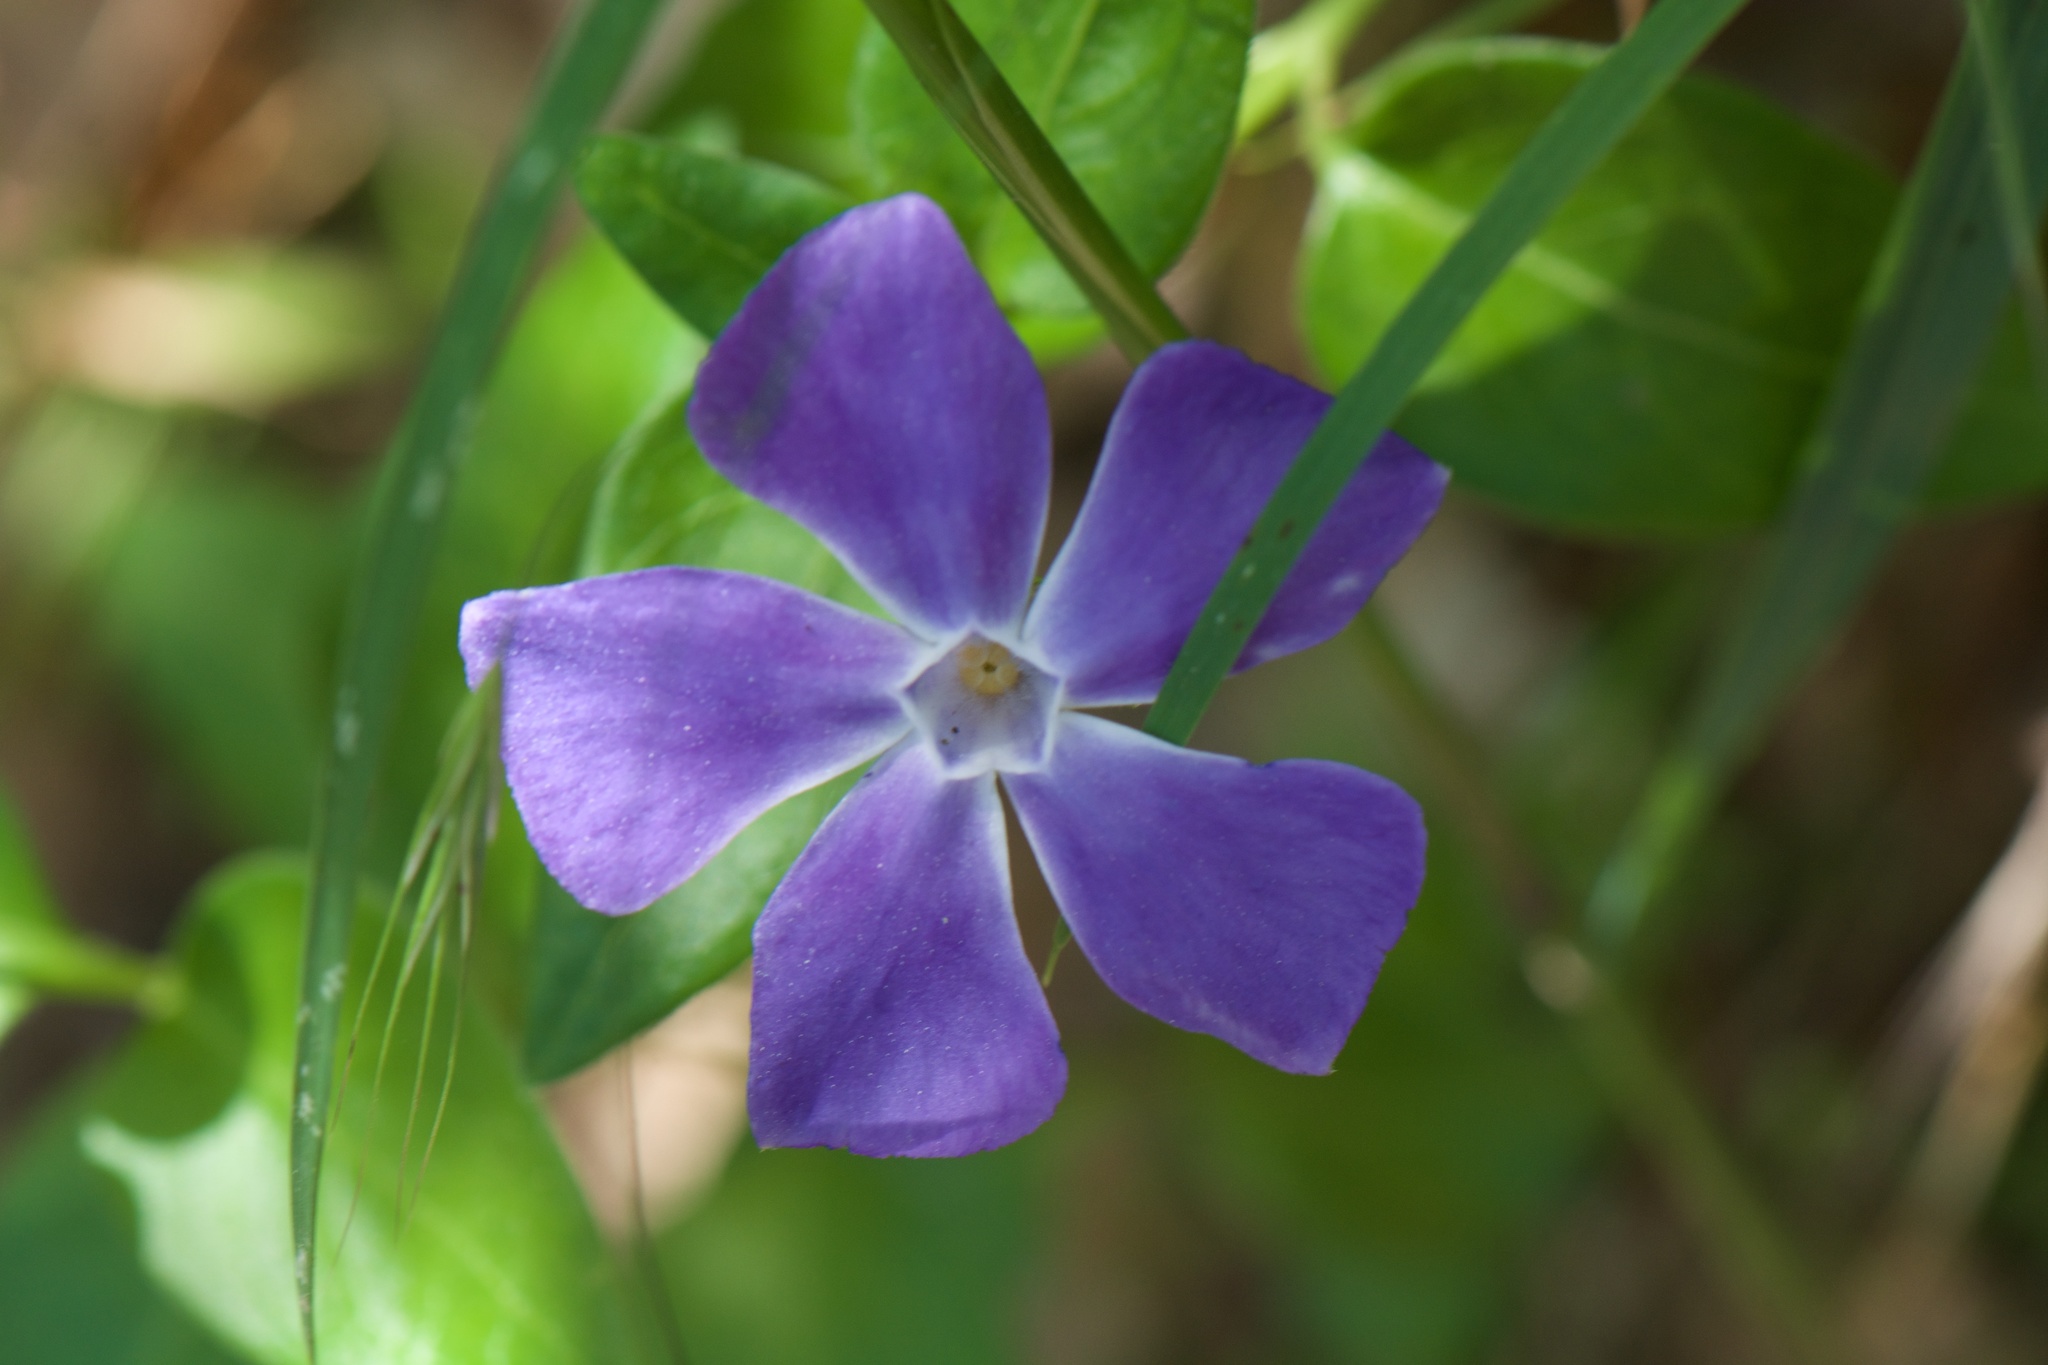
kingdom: Plantae
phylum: Tracheophyta
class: Magnoliopsida
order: Gentianales
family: Apocynaceae
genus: Vinca
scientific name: Vinca major
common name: Greater periwinkle
